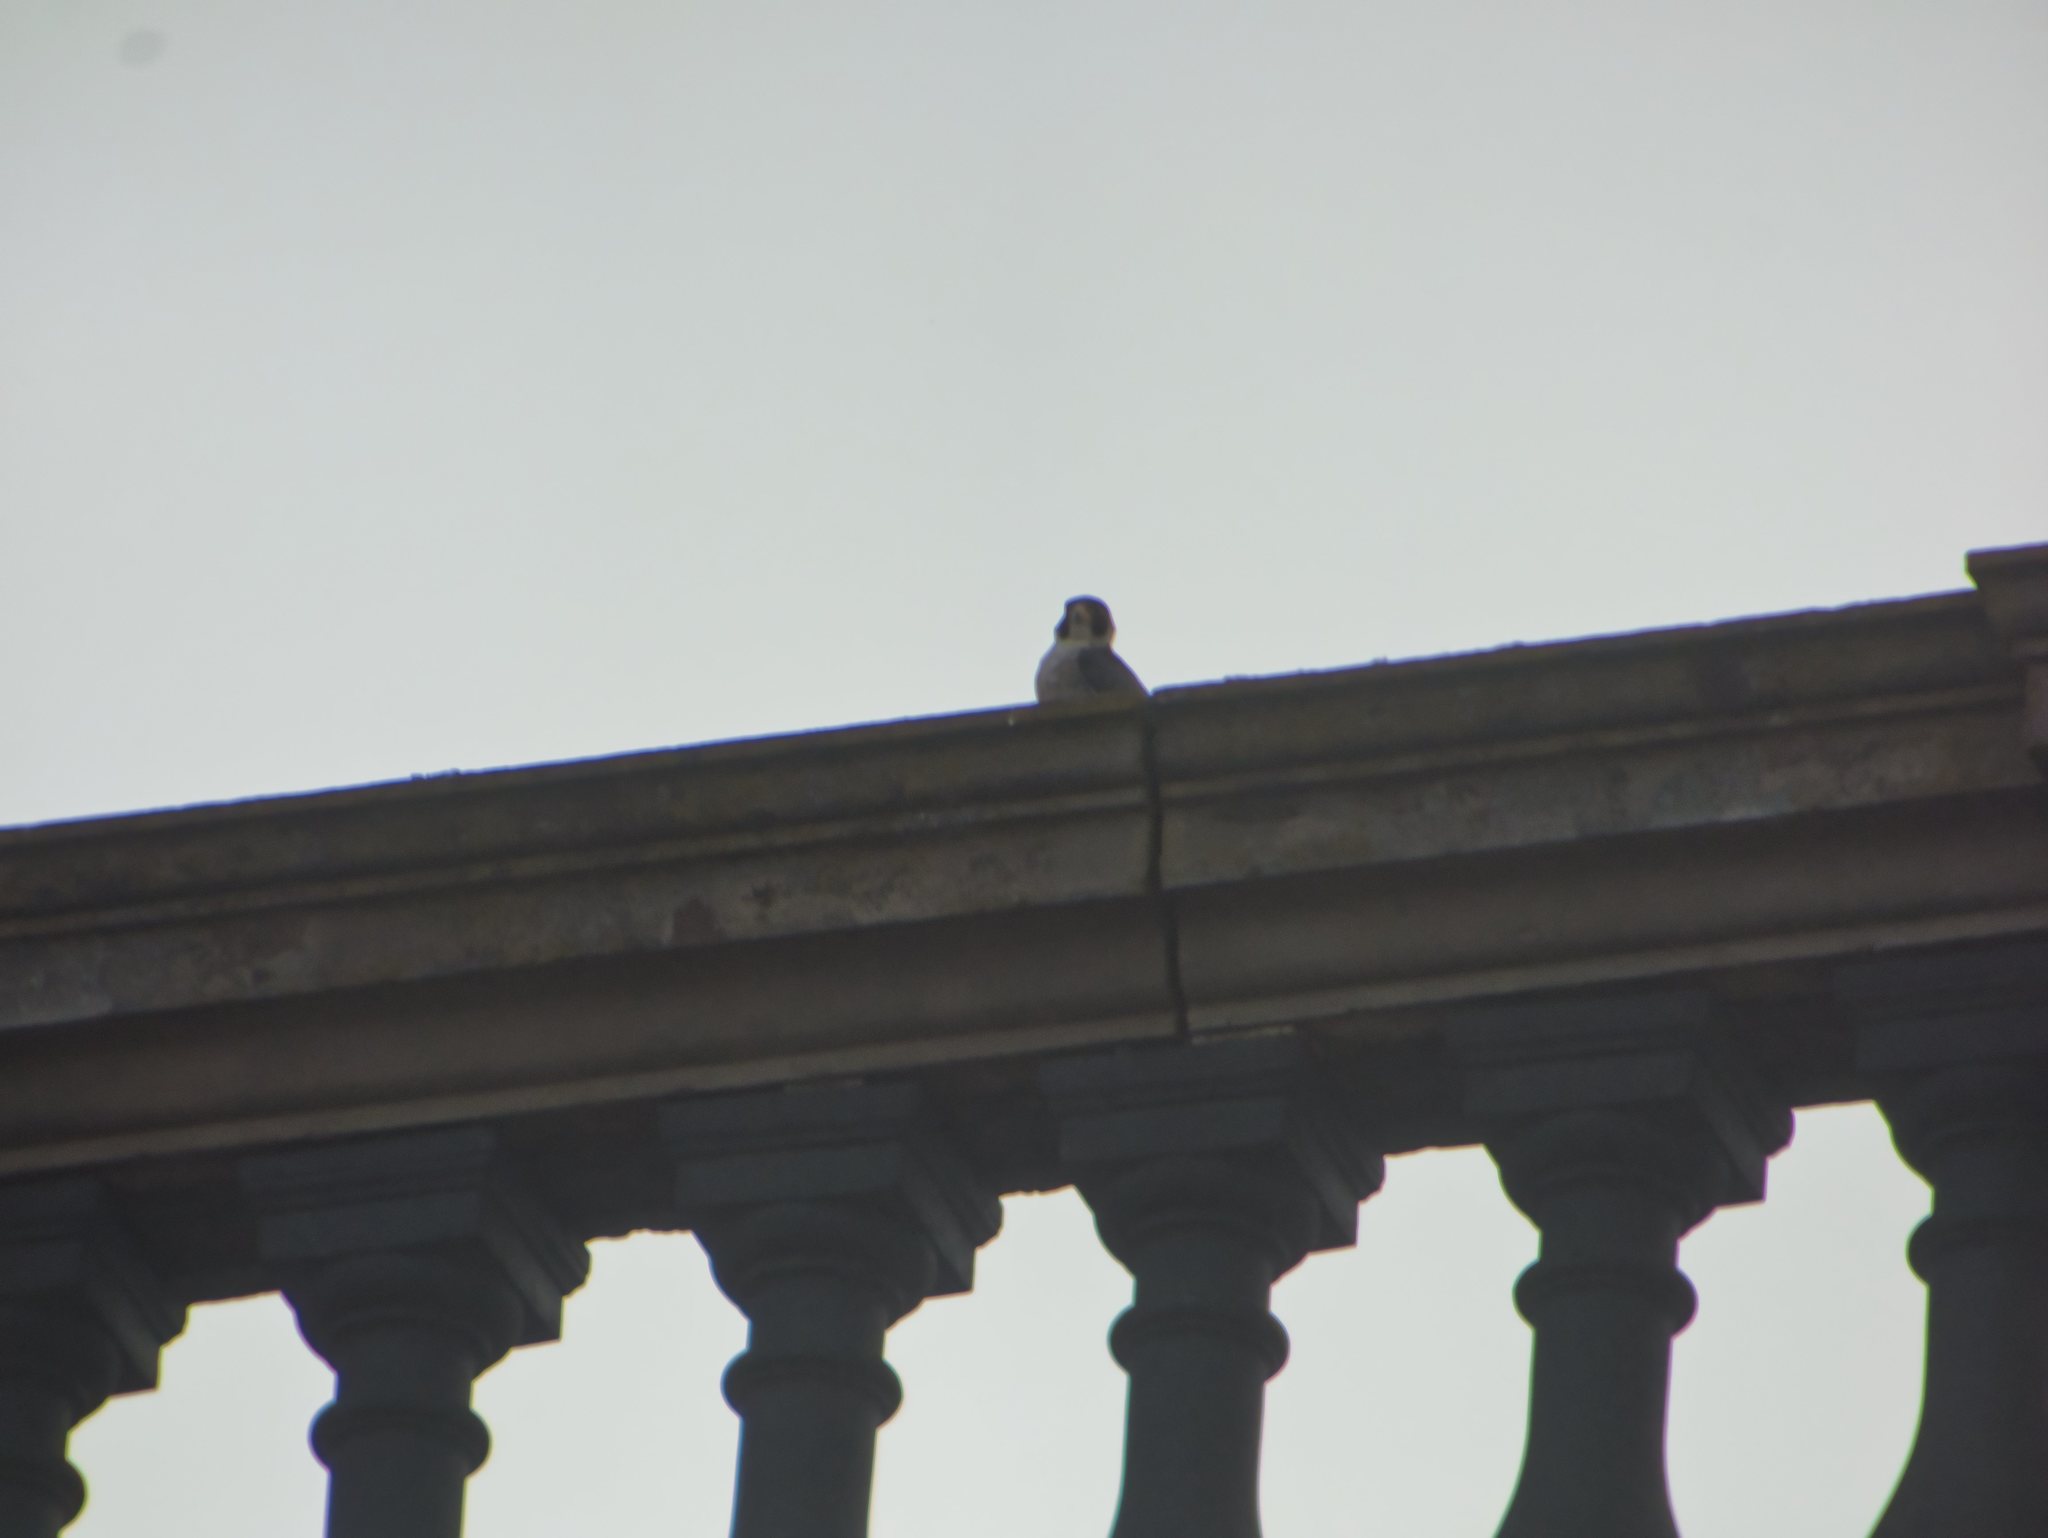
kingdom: Animalia
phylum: Chordata
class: Aves
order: Falconiformes
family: Falconidae
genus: Falco
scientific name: Falco peregrinus
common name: Peregrine falcon
